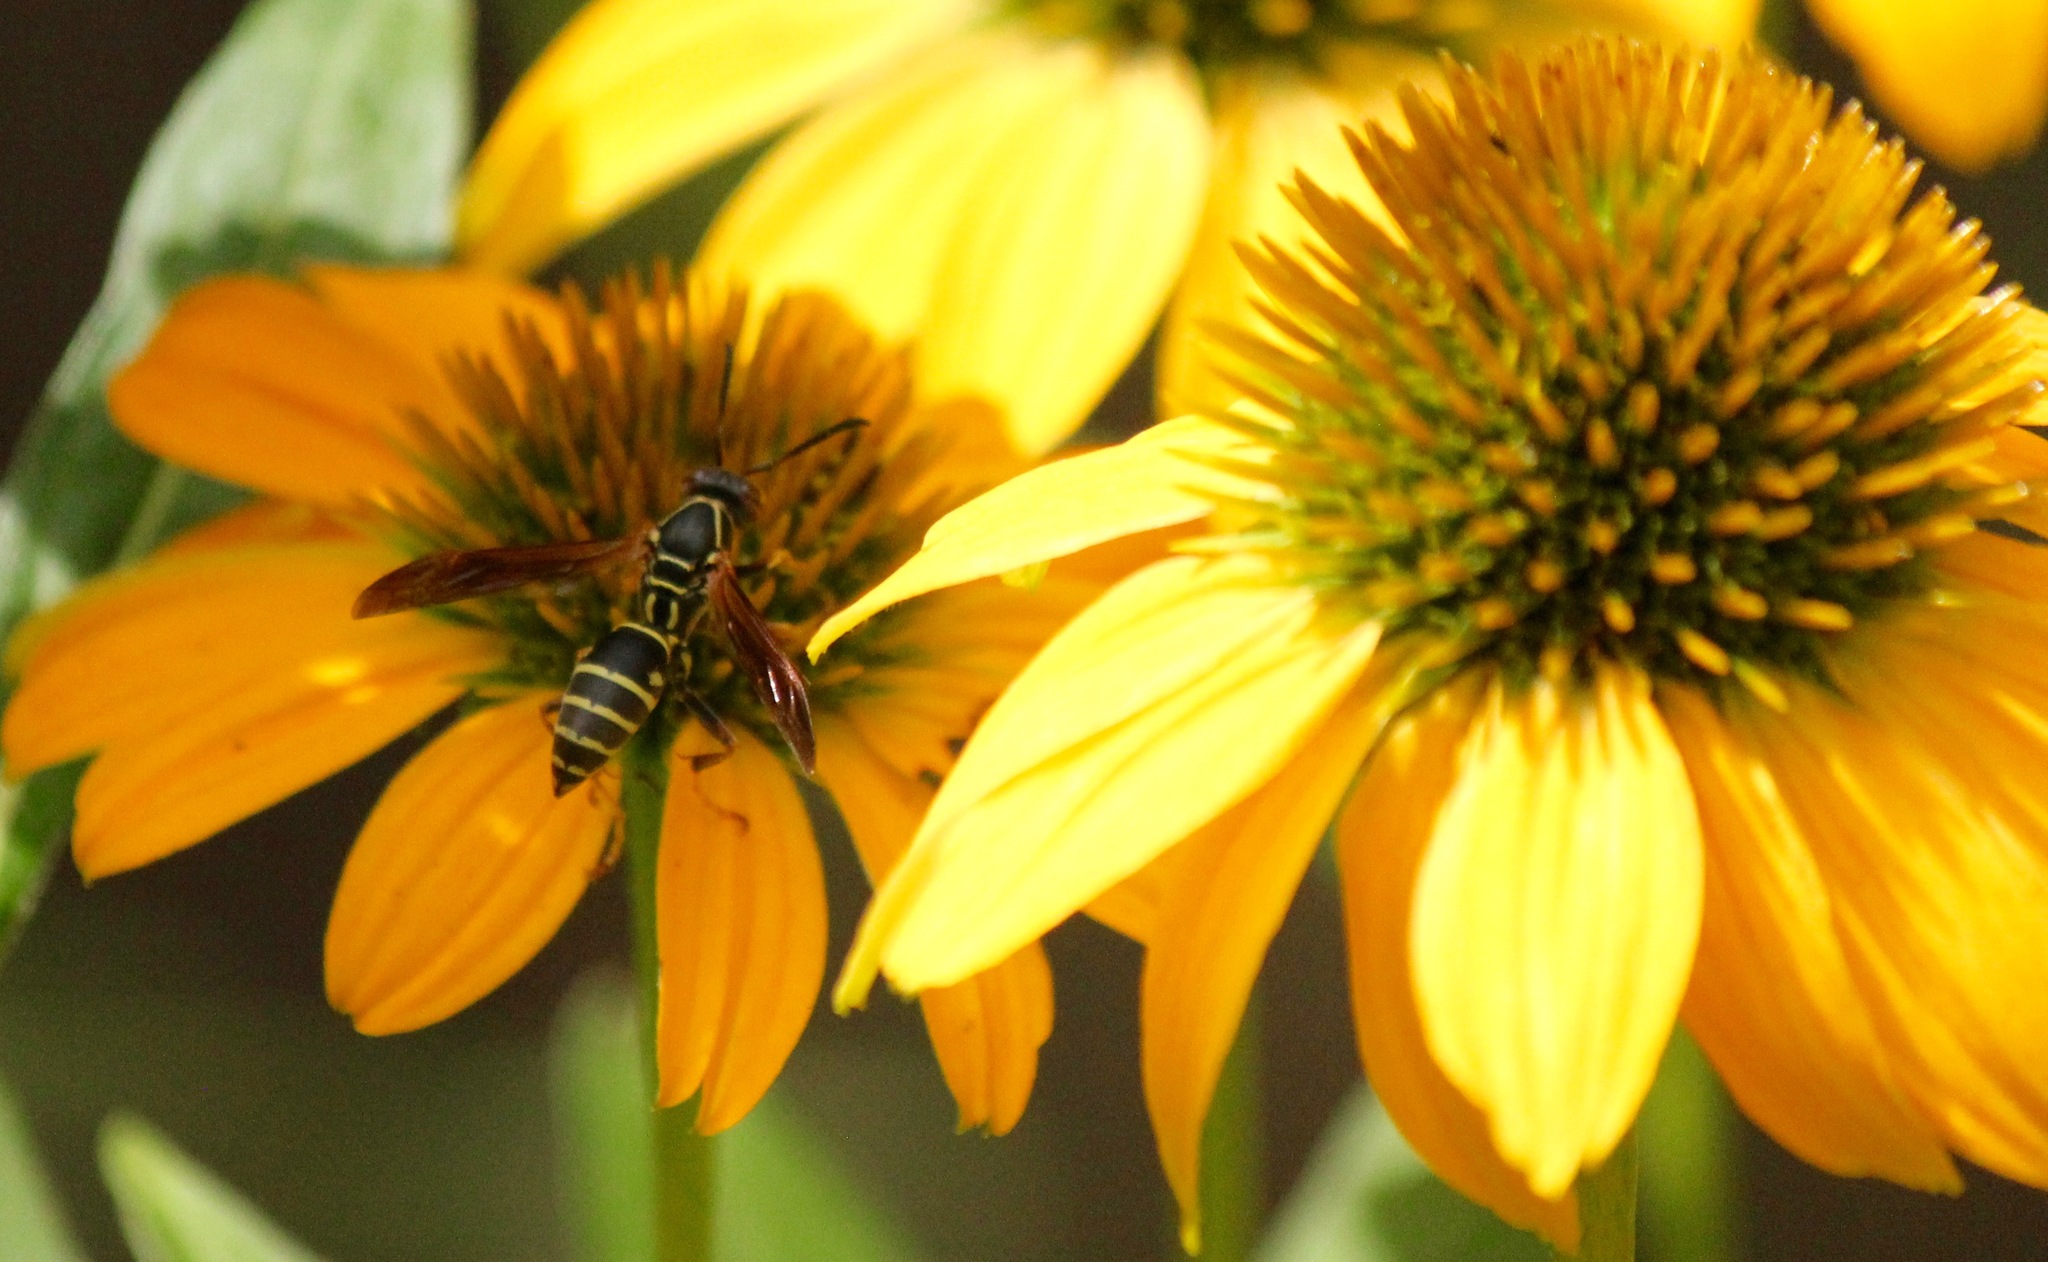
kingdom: Animalia
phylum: Arthropoda
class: Insecta
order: Hymenoptera
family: Eumenidae
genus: Polistes
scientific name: Polistes fuscatus
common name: Dark paper wasp
